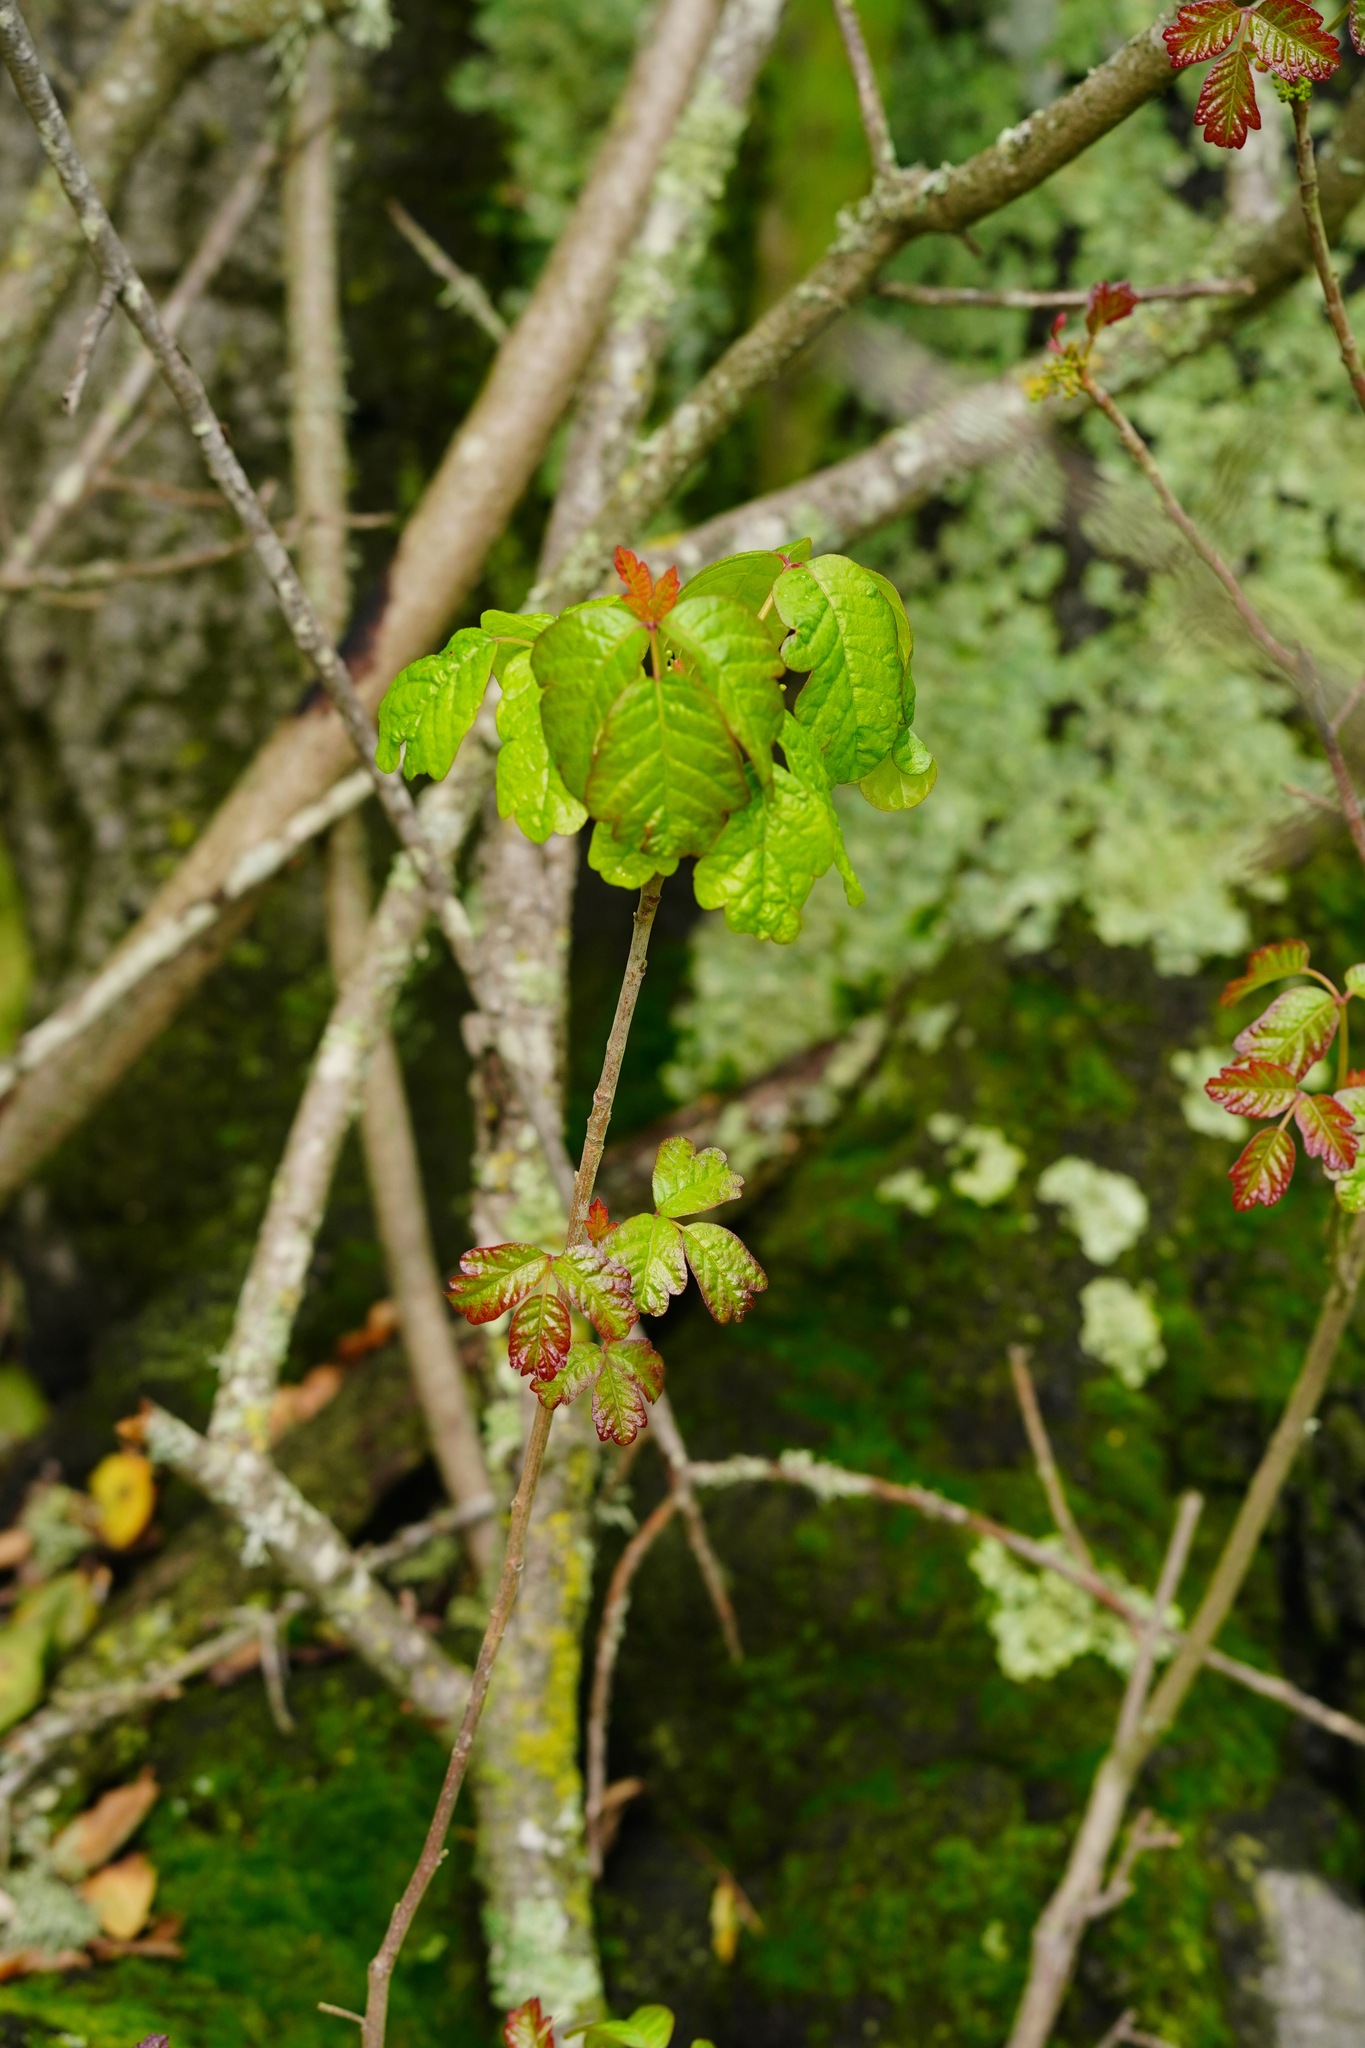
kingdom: Plantae
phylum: Tracheophyta
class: Magnoliopsida
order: Sapindales
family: Anacardiaceae
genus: Toxicodendron
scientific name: Toxicodendron diversilobum
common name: Pacific poison-oak
